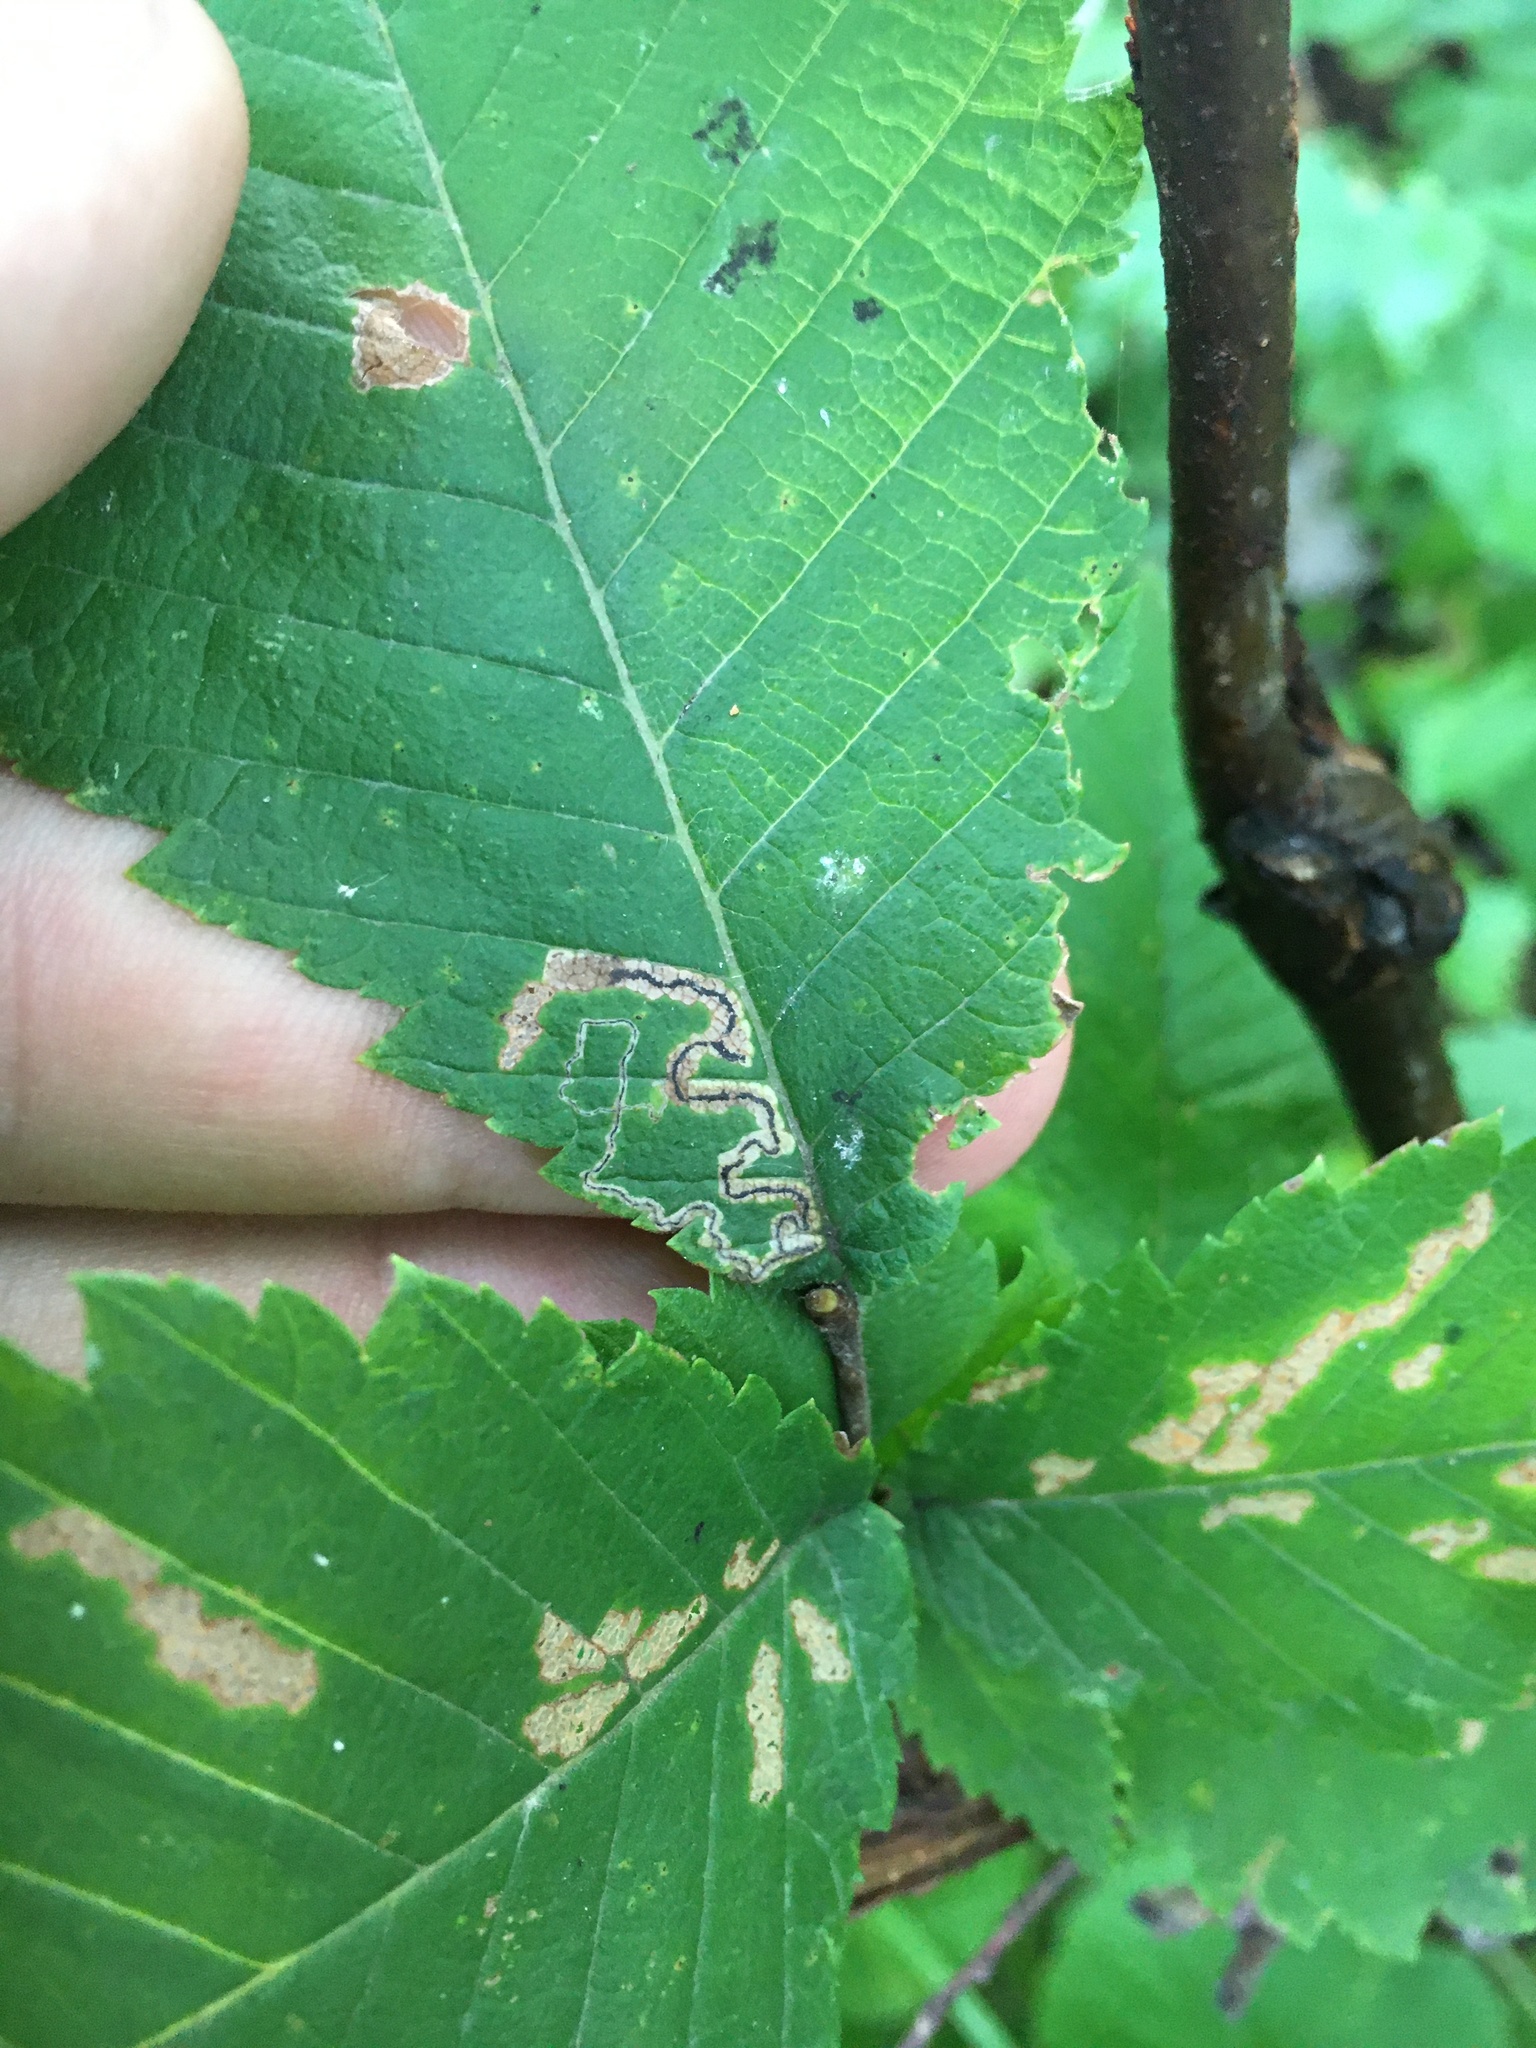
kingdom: Animalia
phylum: Arthropoda
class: Insecta
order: Lepidoptera
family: Nepticulidae
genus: Stigmella
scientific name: Stigmella apicialbella
